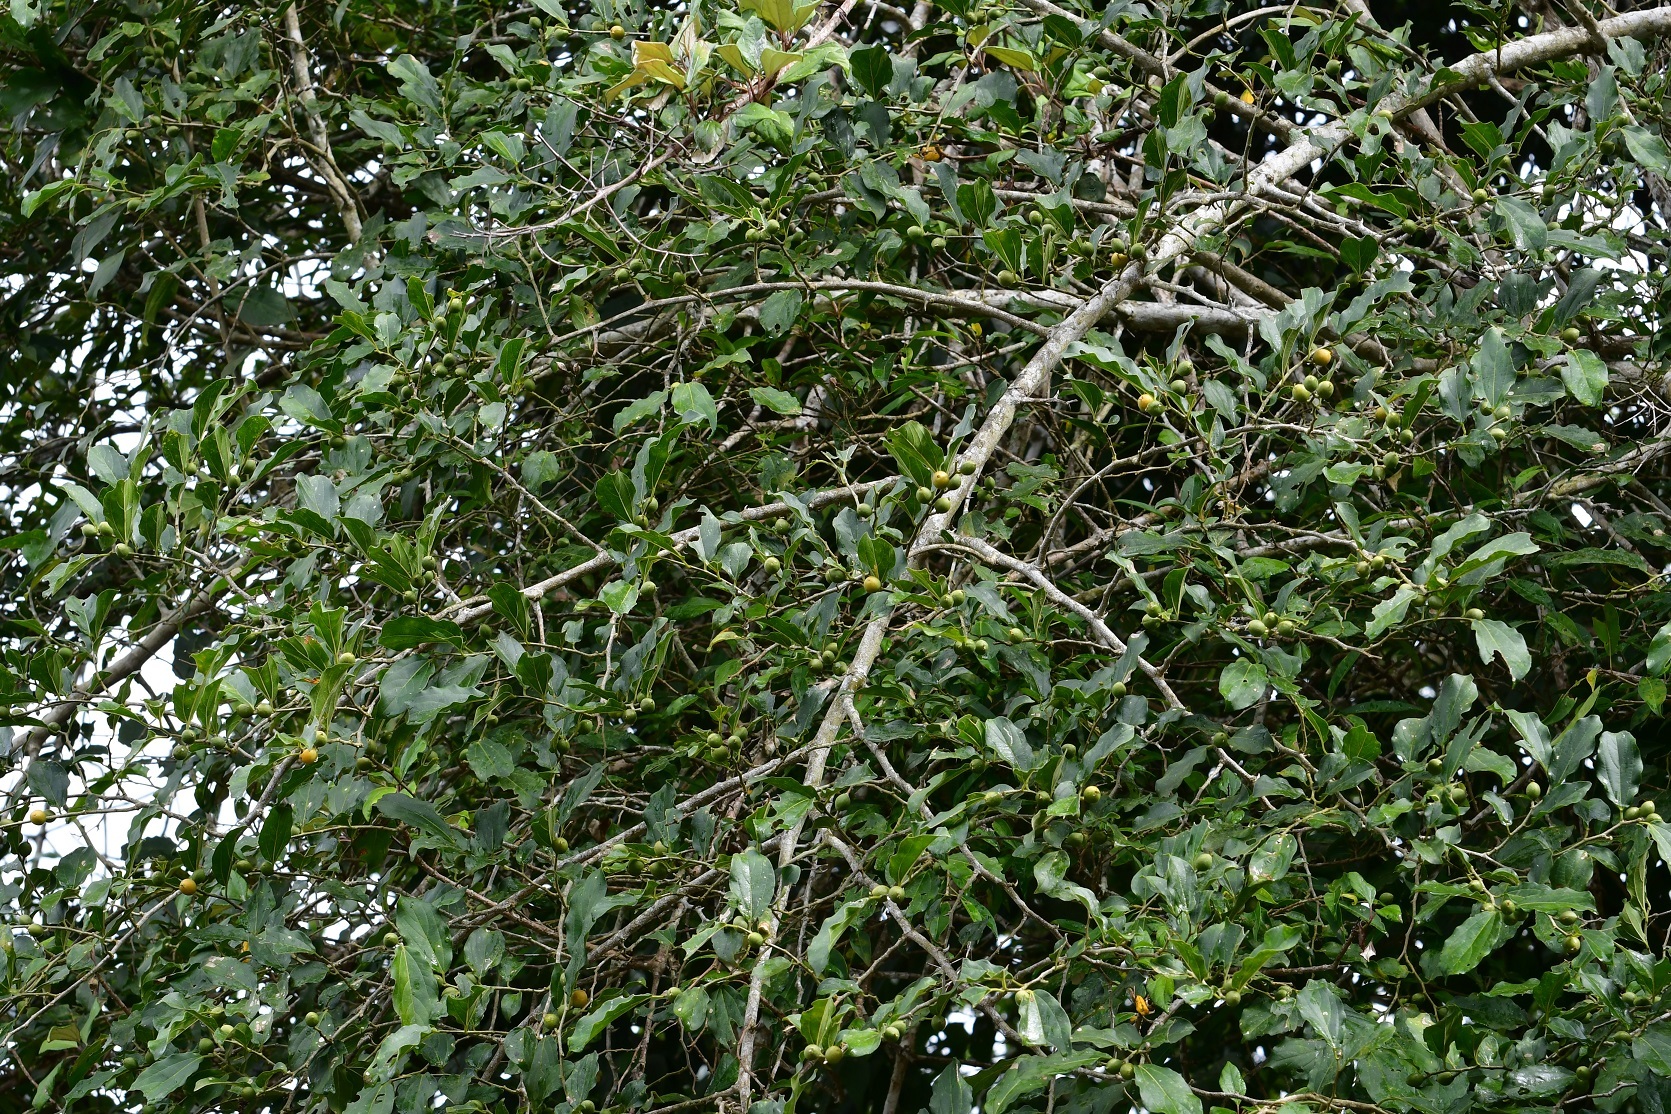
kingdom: Plantae
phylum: Tracheophyta
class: Magnoliopsida
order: Rosales
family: Cannabaceae
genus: Celtis
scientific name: Celtis iguanaea
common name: Iguana hackberry
